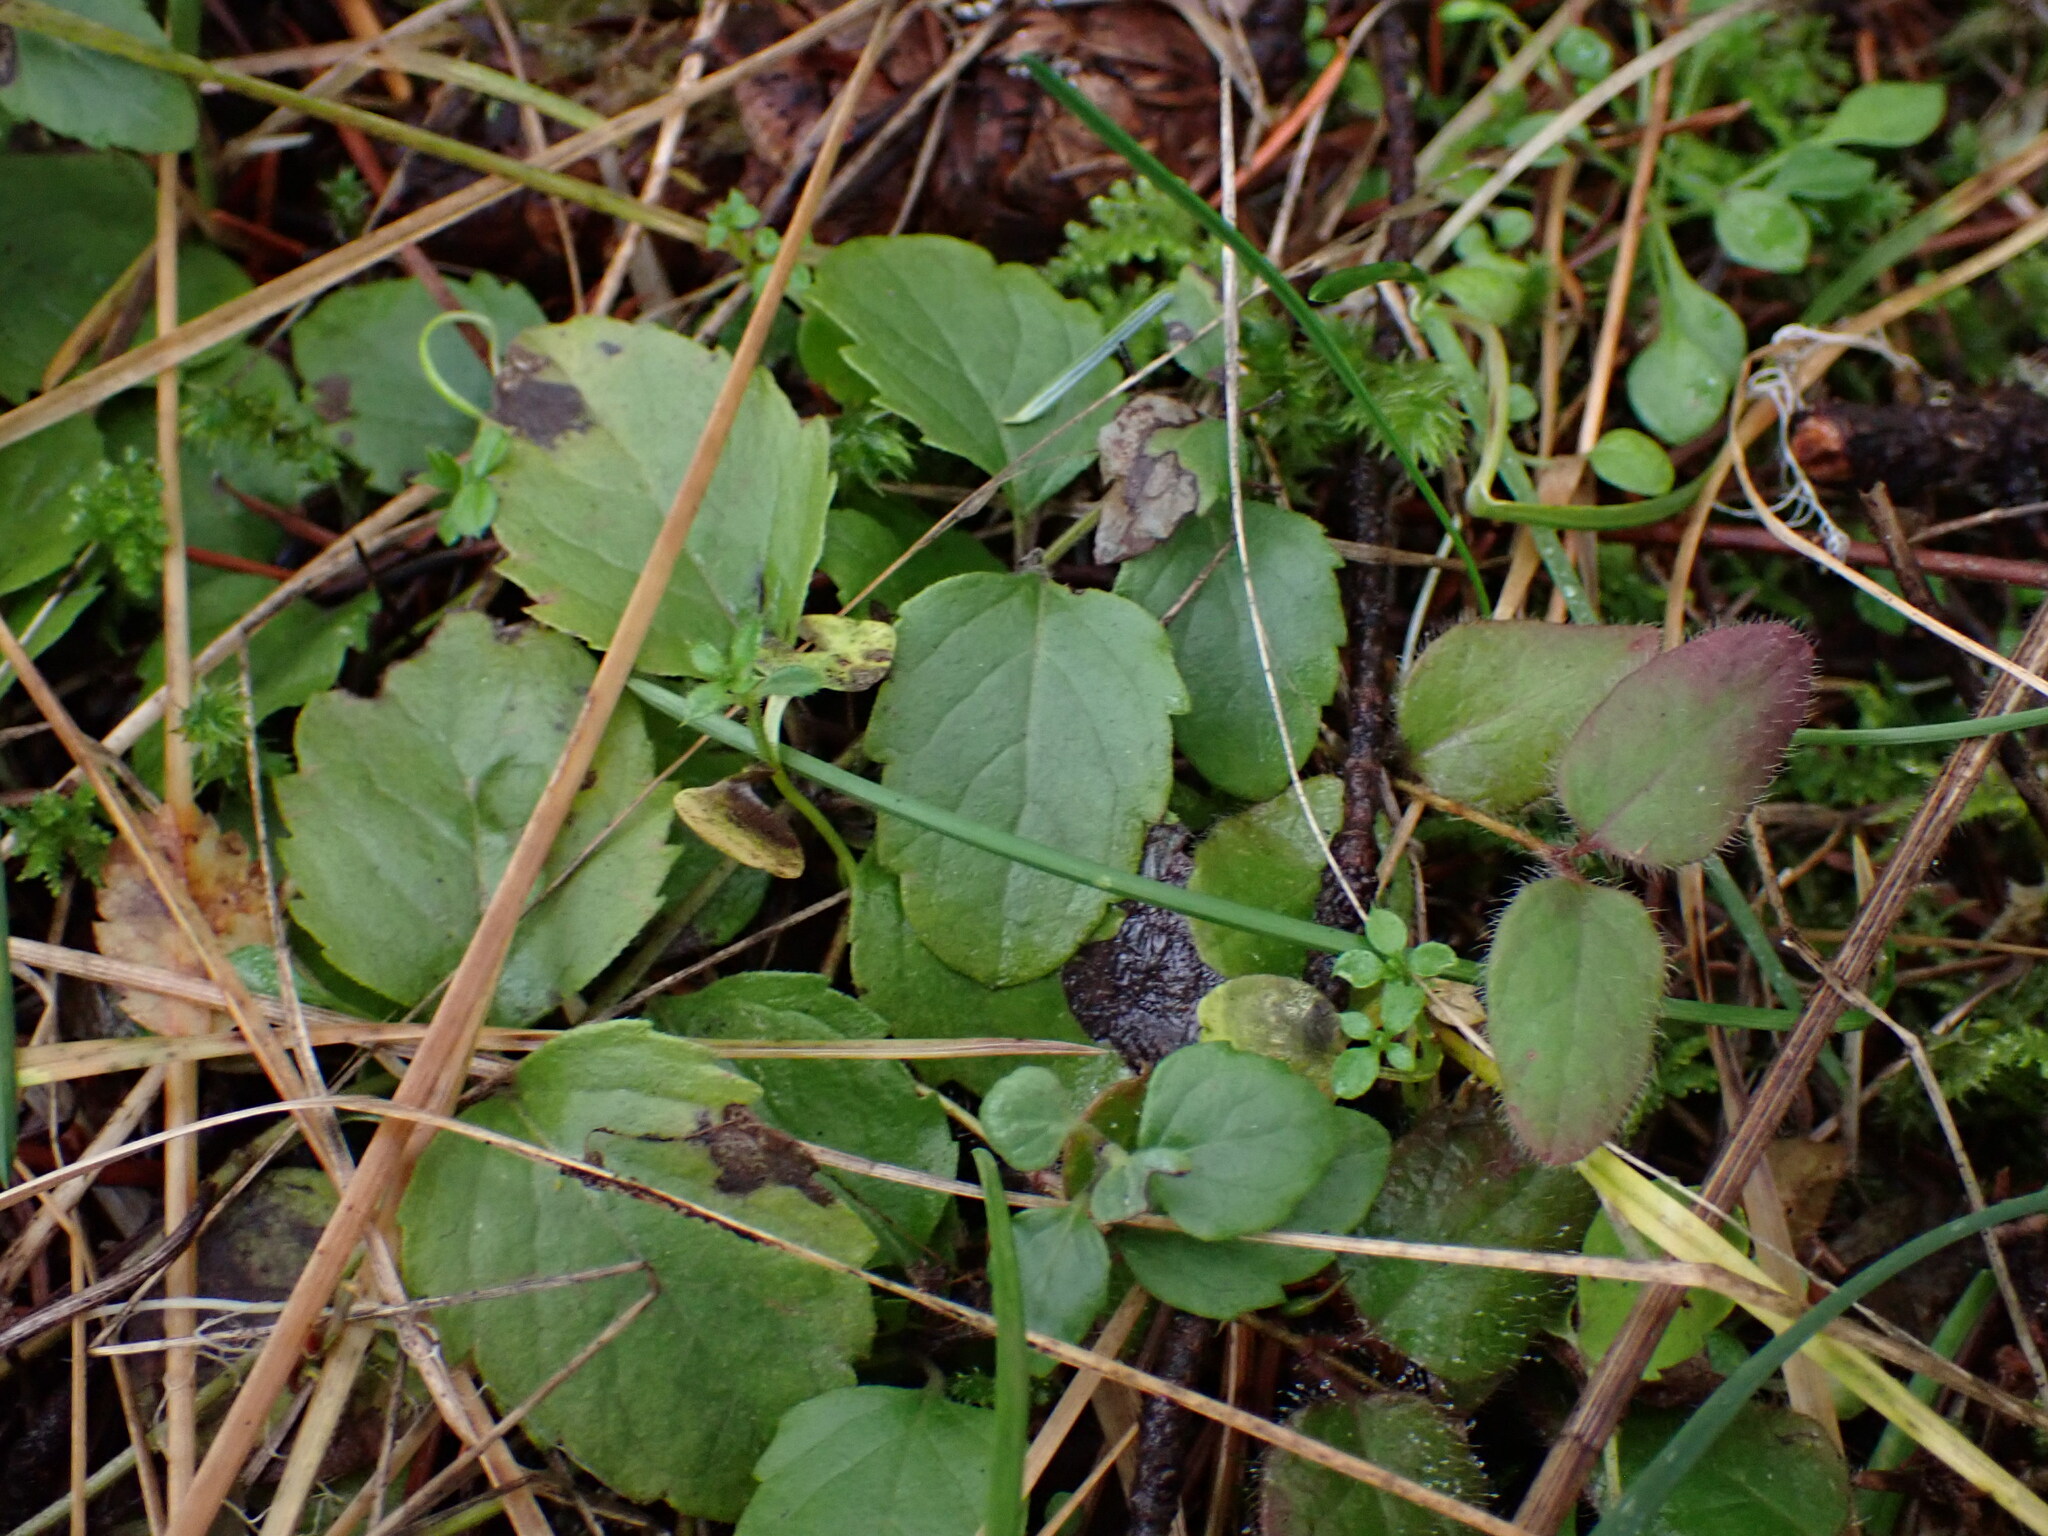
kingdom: Plantae
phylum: Tracheophyta
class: Magnoliopsida
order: Lamiales
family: Lamiaceae
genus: Micromeria
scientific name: Micromeria douglasii
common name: Yerba buena
